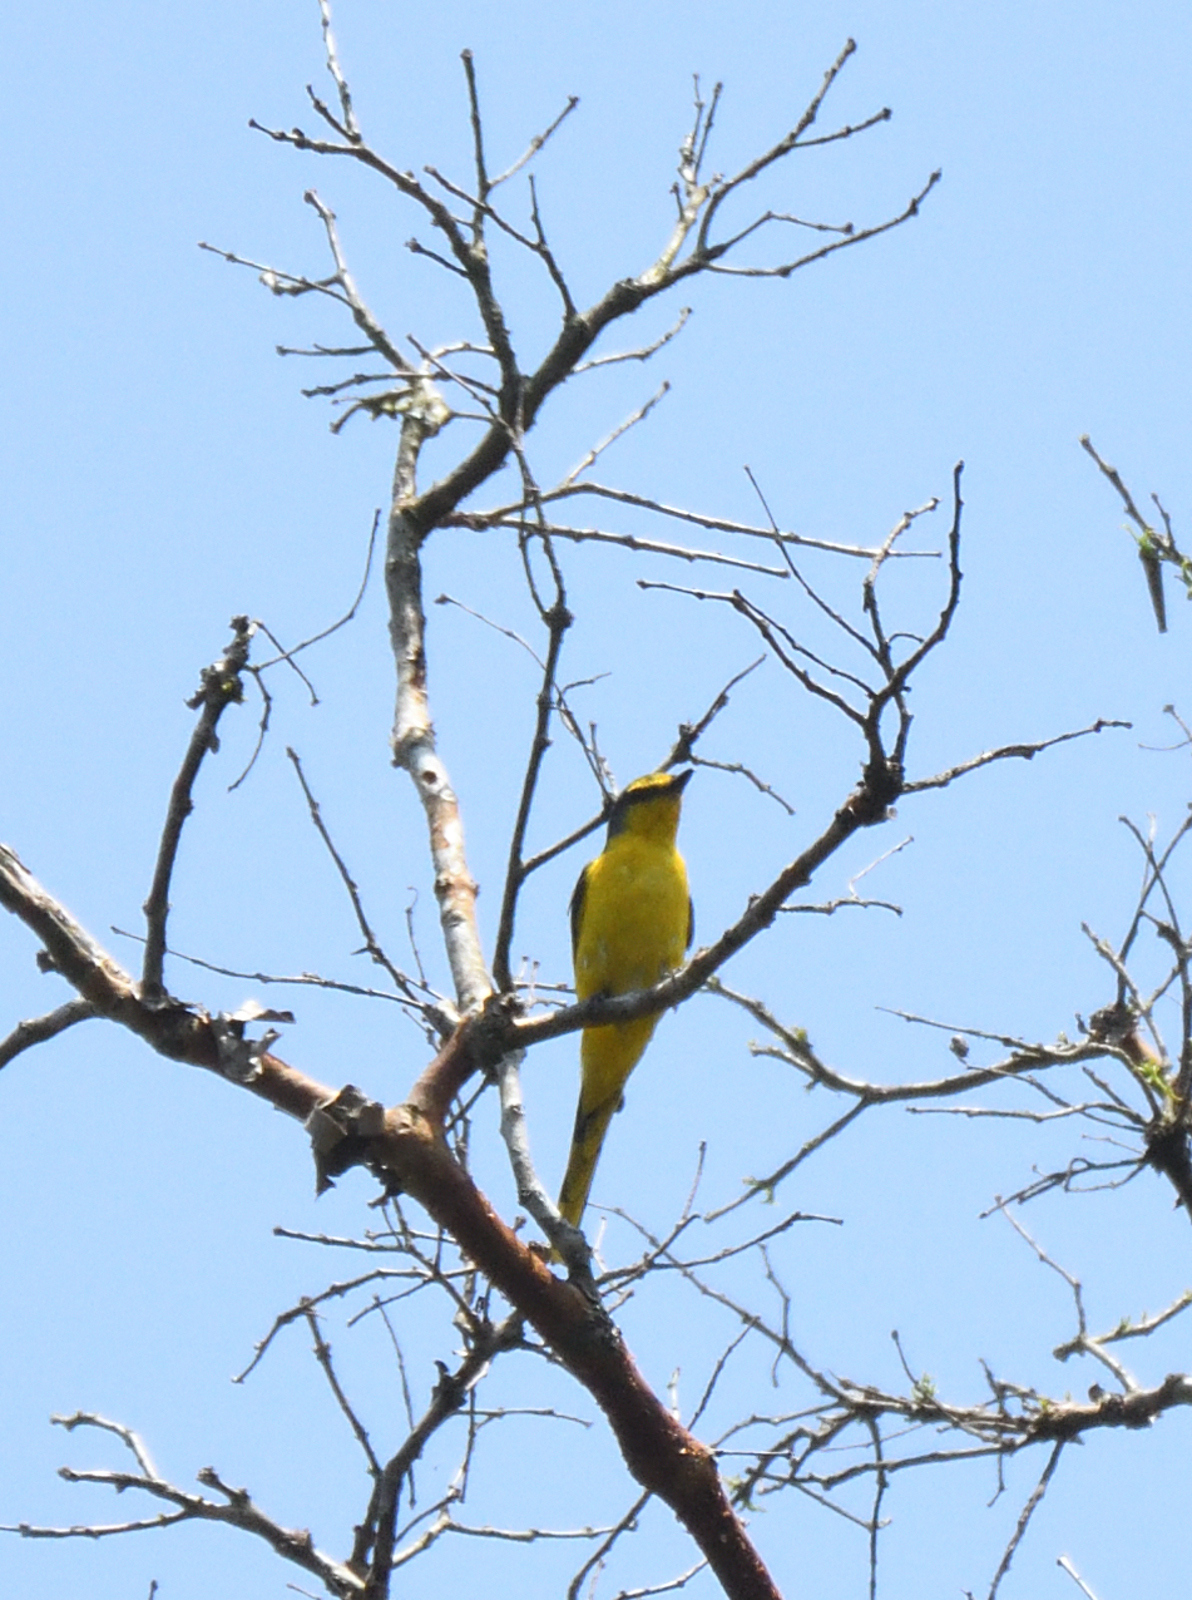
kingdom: Animalia
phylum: Chordata
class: Aves
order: Passeriformes
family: Campephagidae
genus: Pericrocotus
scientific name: Pericrocotus flammeus
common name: Orange minivet
